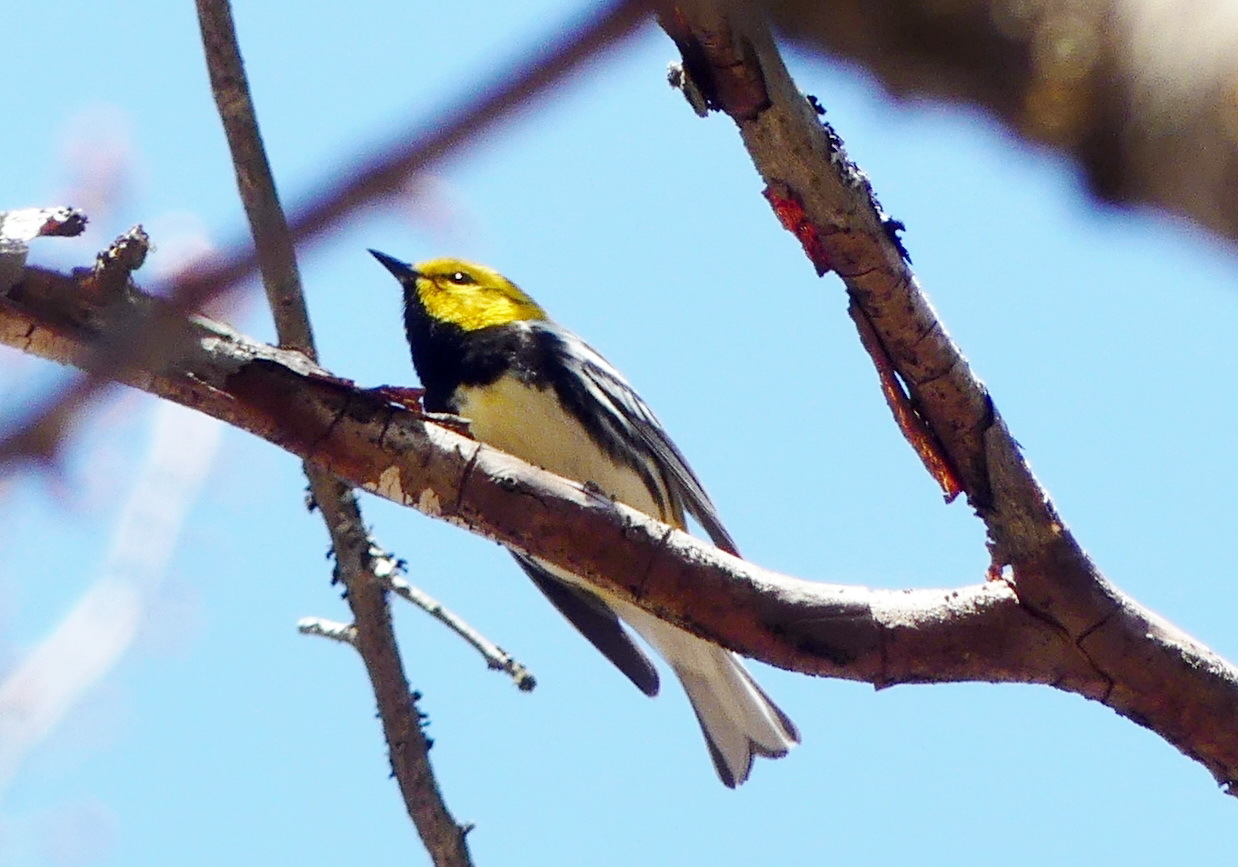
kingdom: Animalia
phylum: Chordata
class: Aves
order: Passeriformes
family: Parulidae
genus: Setophaga
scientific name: Setophaga virens
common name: Black-throated green warbler
